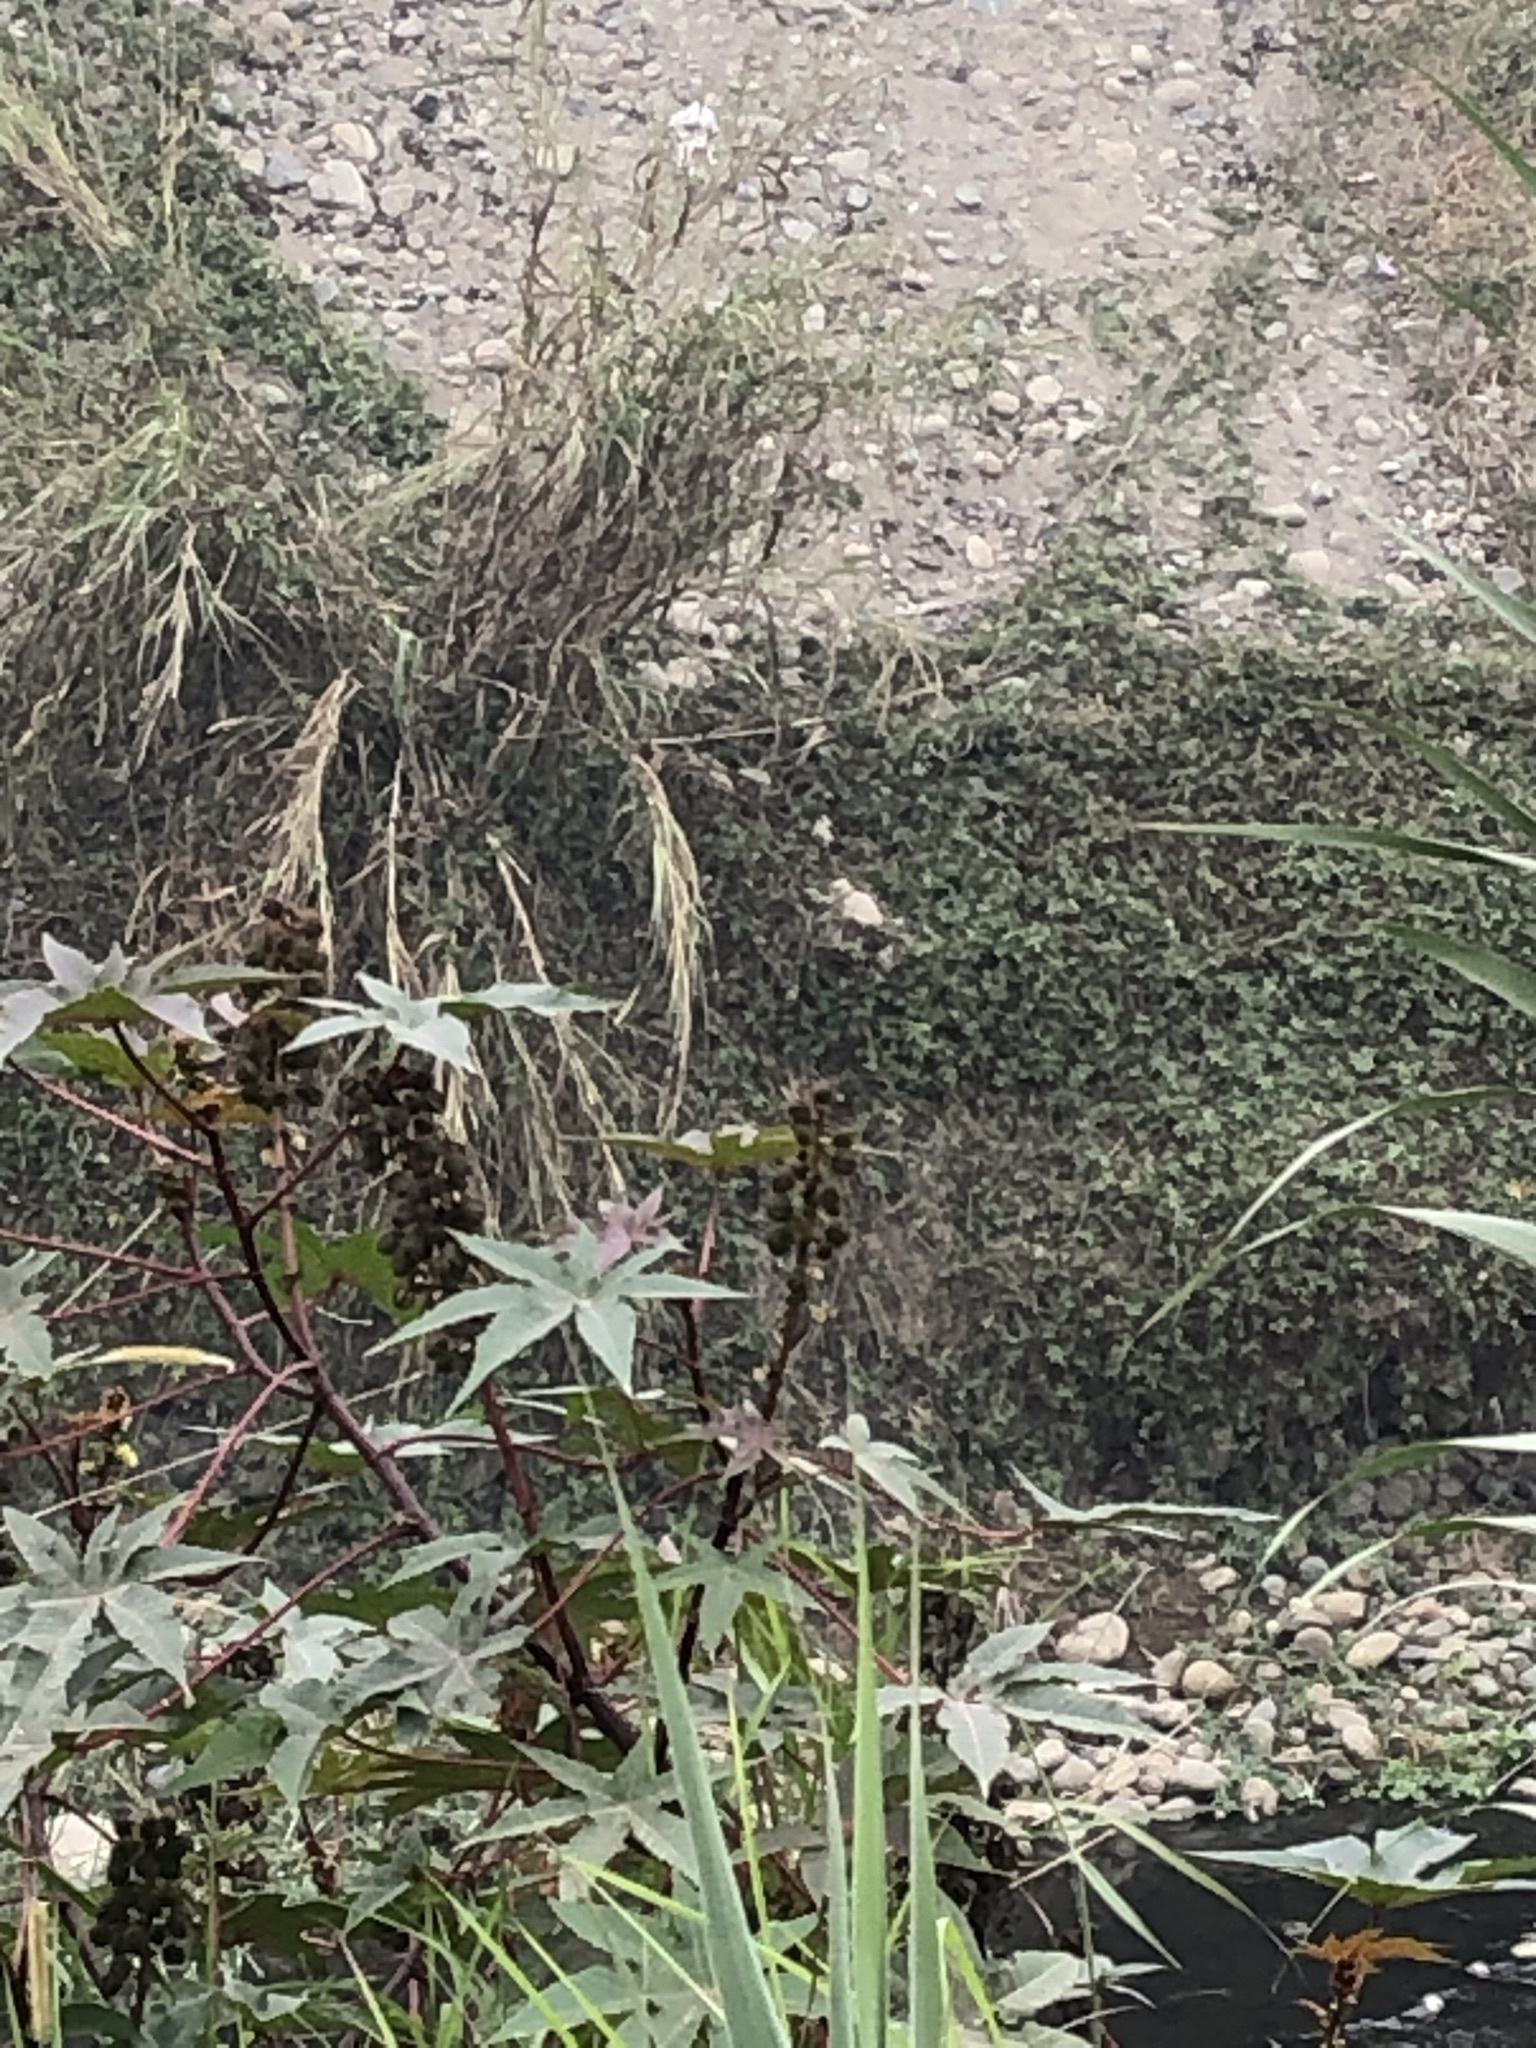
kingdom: Plantae
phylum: Tracheophyta
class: Magnoliopsida
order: Malpighiales
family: Euphorbiaceae
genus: Ricinus
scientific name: Ricinus communis
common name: Castor-oil-plant
